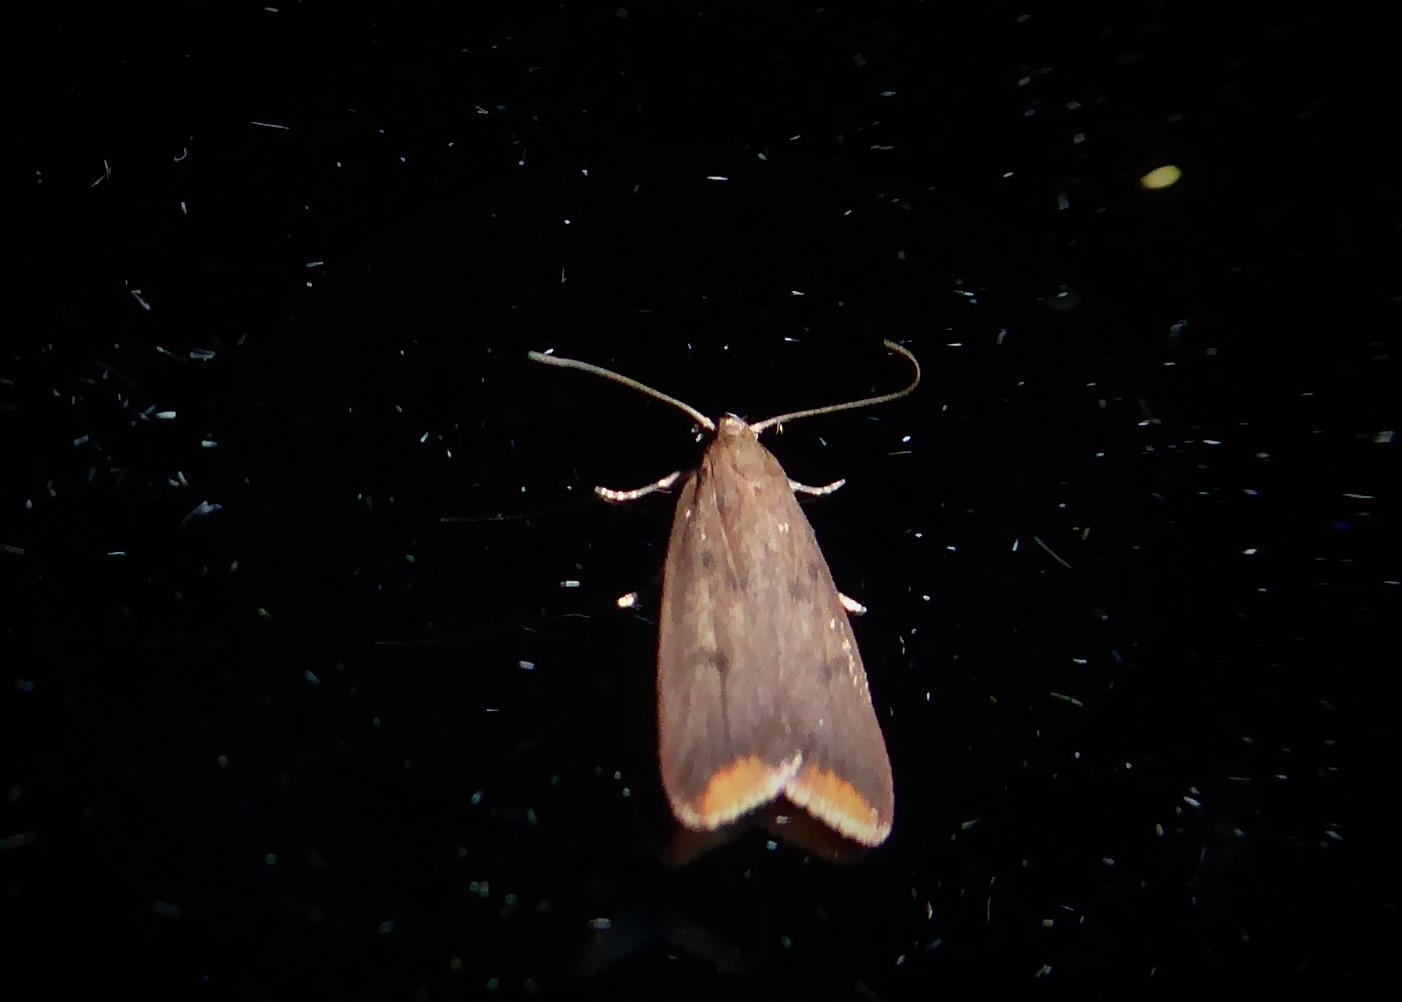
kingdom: Animalia
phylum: Arthropoda
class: Insecta
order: Lepidoptera
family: Oecophoridae
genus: Tachystola
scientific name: Tachystola acroxantha
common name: Ruddy streak
